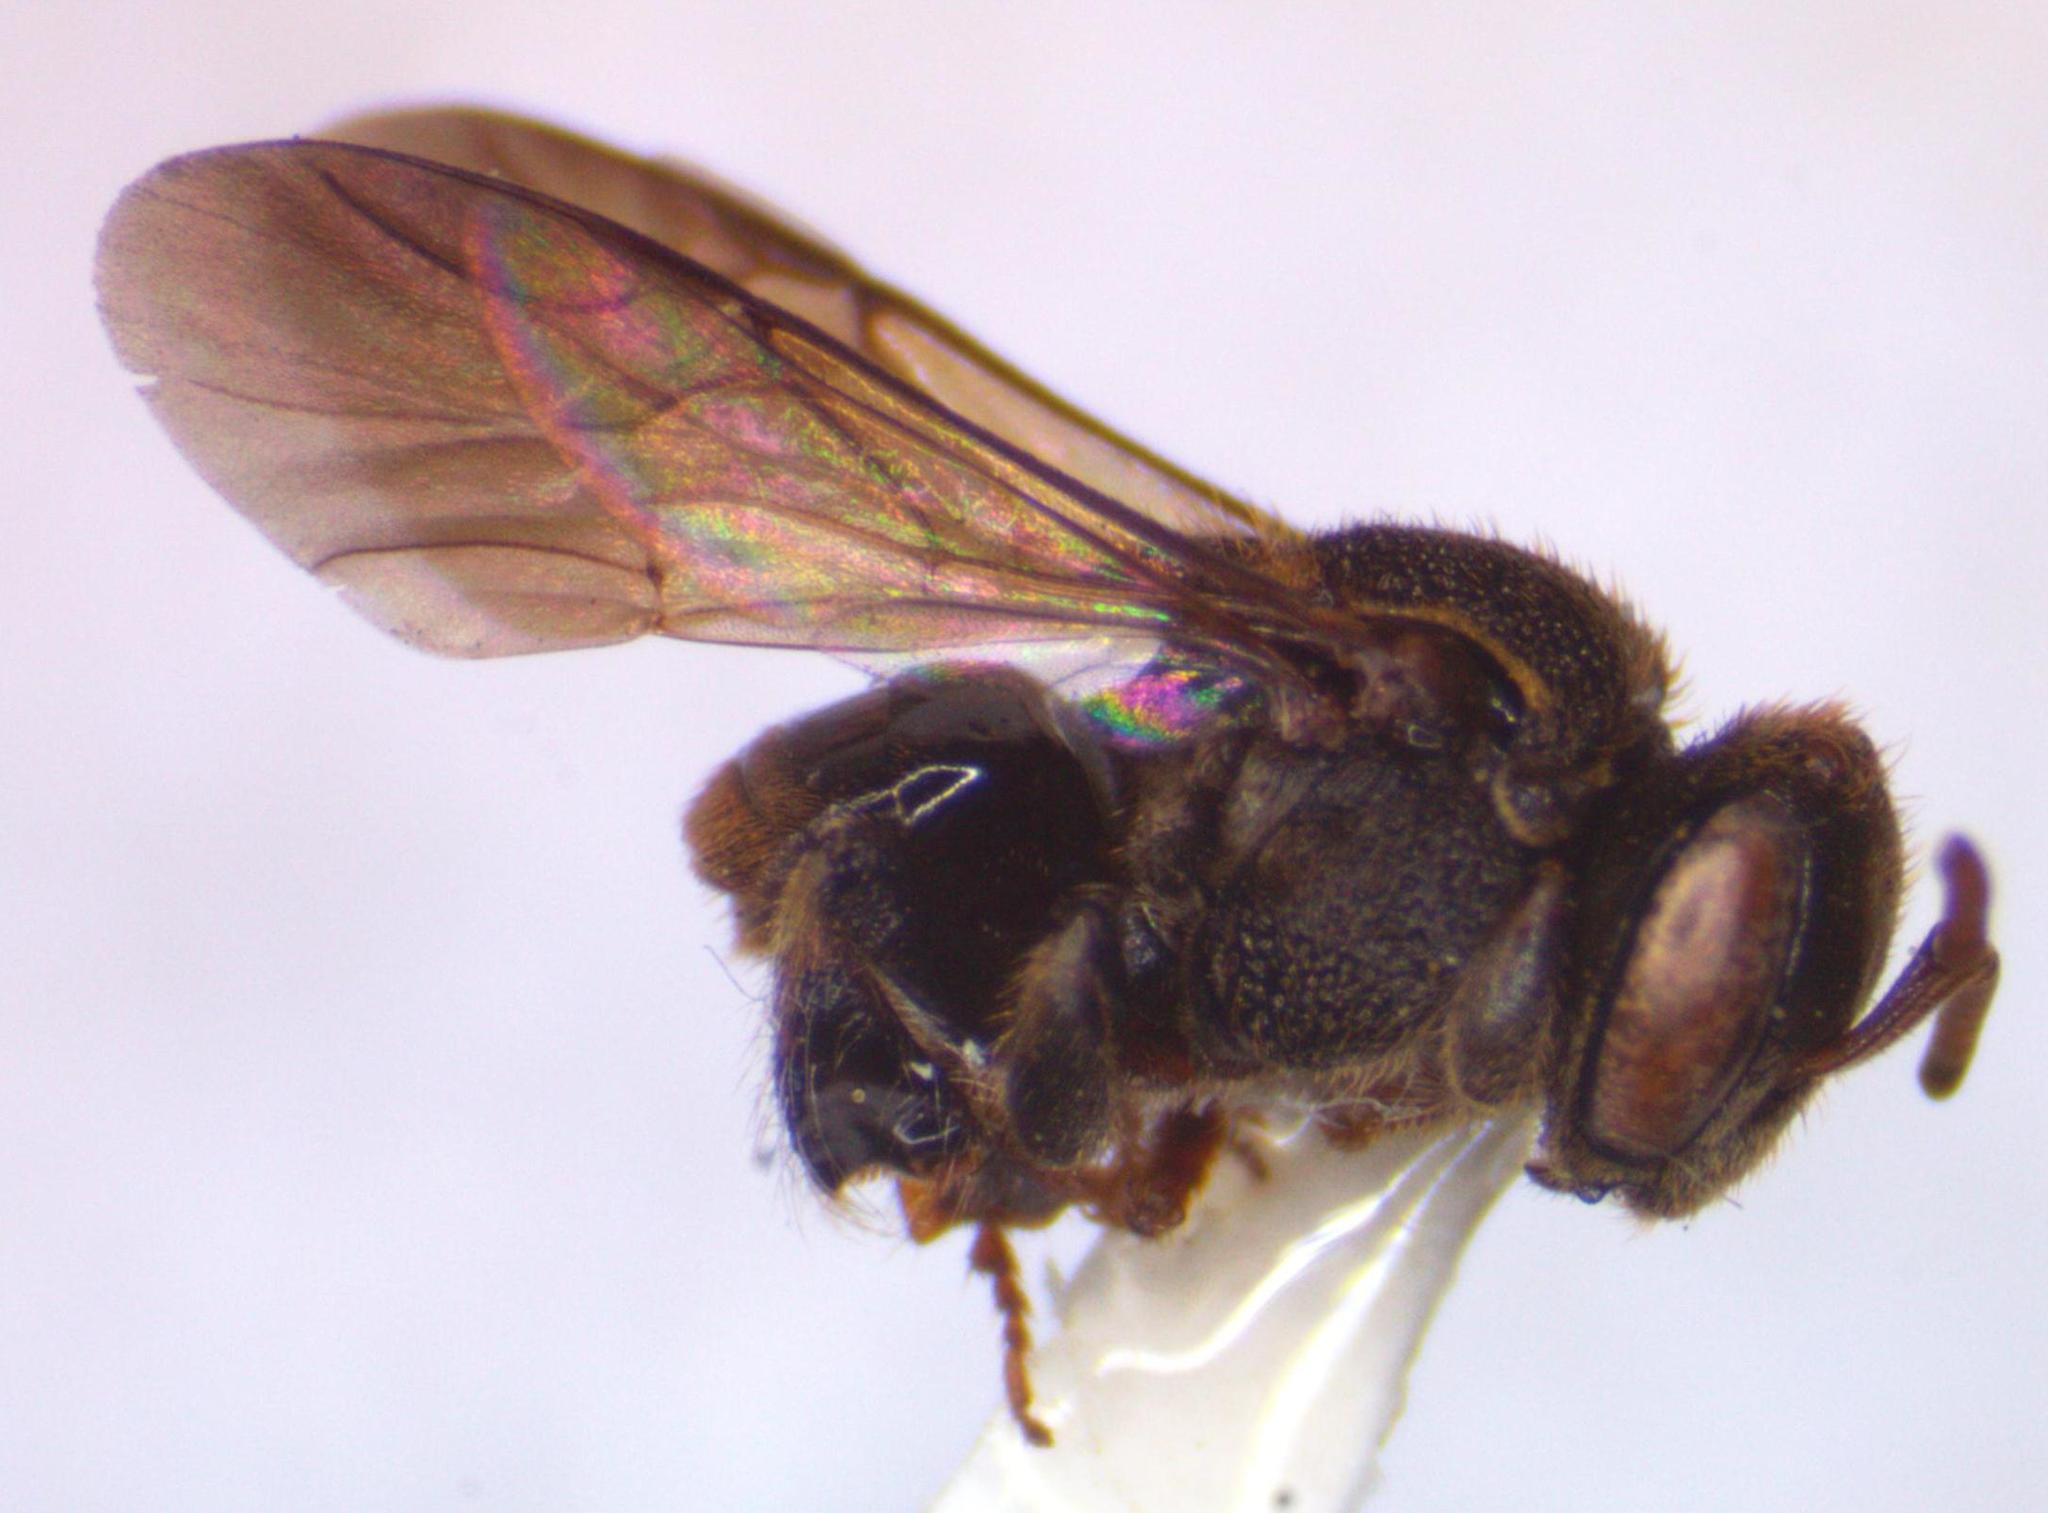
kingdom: Animalia
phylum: Arthropoda
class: Insecta
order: Hymenoptera
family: Apidae
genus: Nannotrigona
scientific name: Nannotrigona perilampoides
